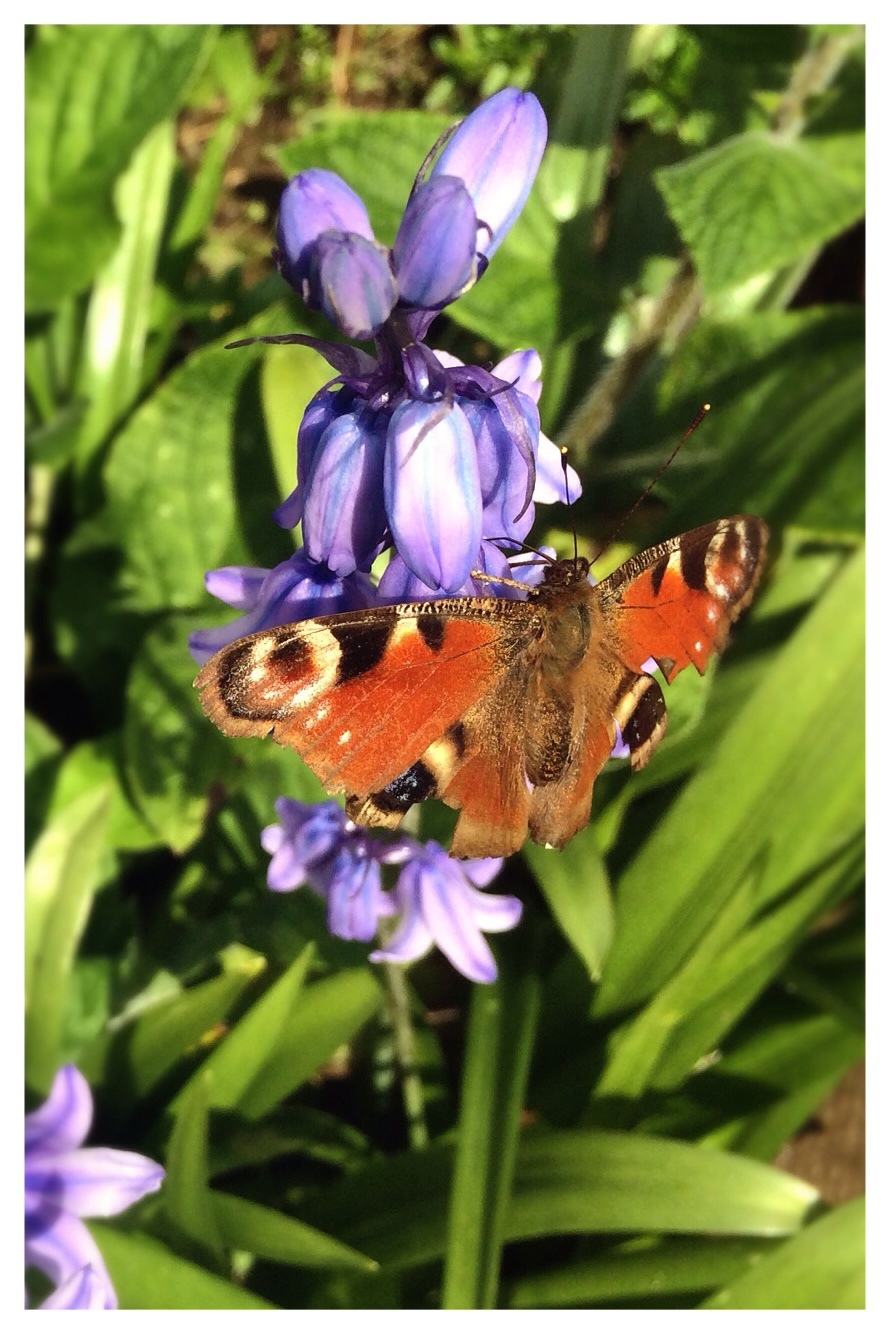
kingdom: Animalia
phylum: Arthropoda
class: Insecta
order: Lepidoptera
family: Nymphalidae
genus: Aglais
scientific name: Aglais io
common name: Peacock
